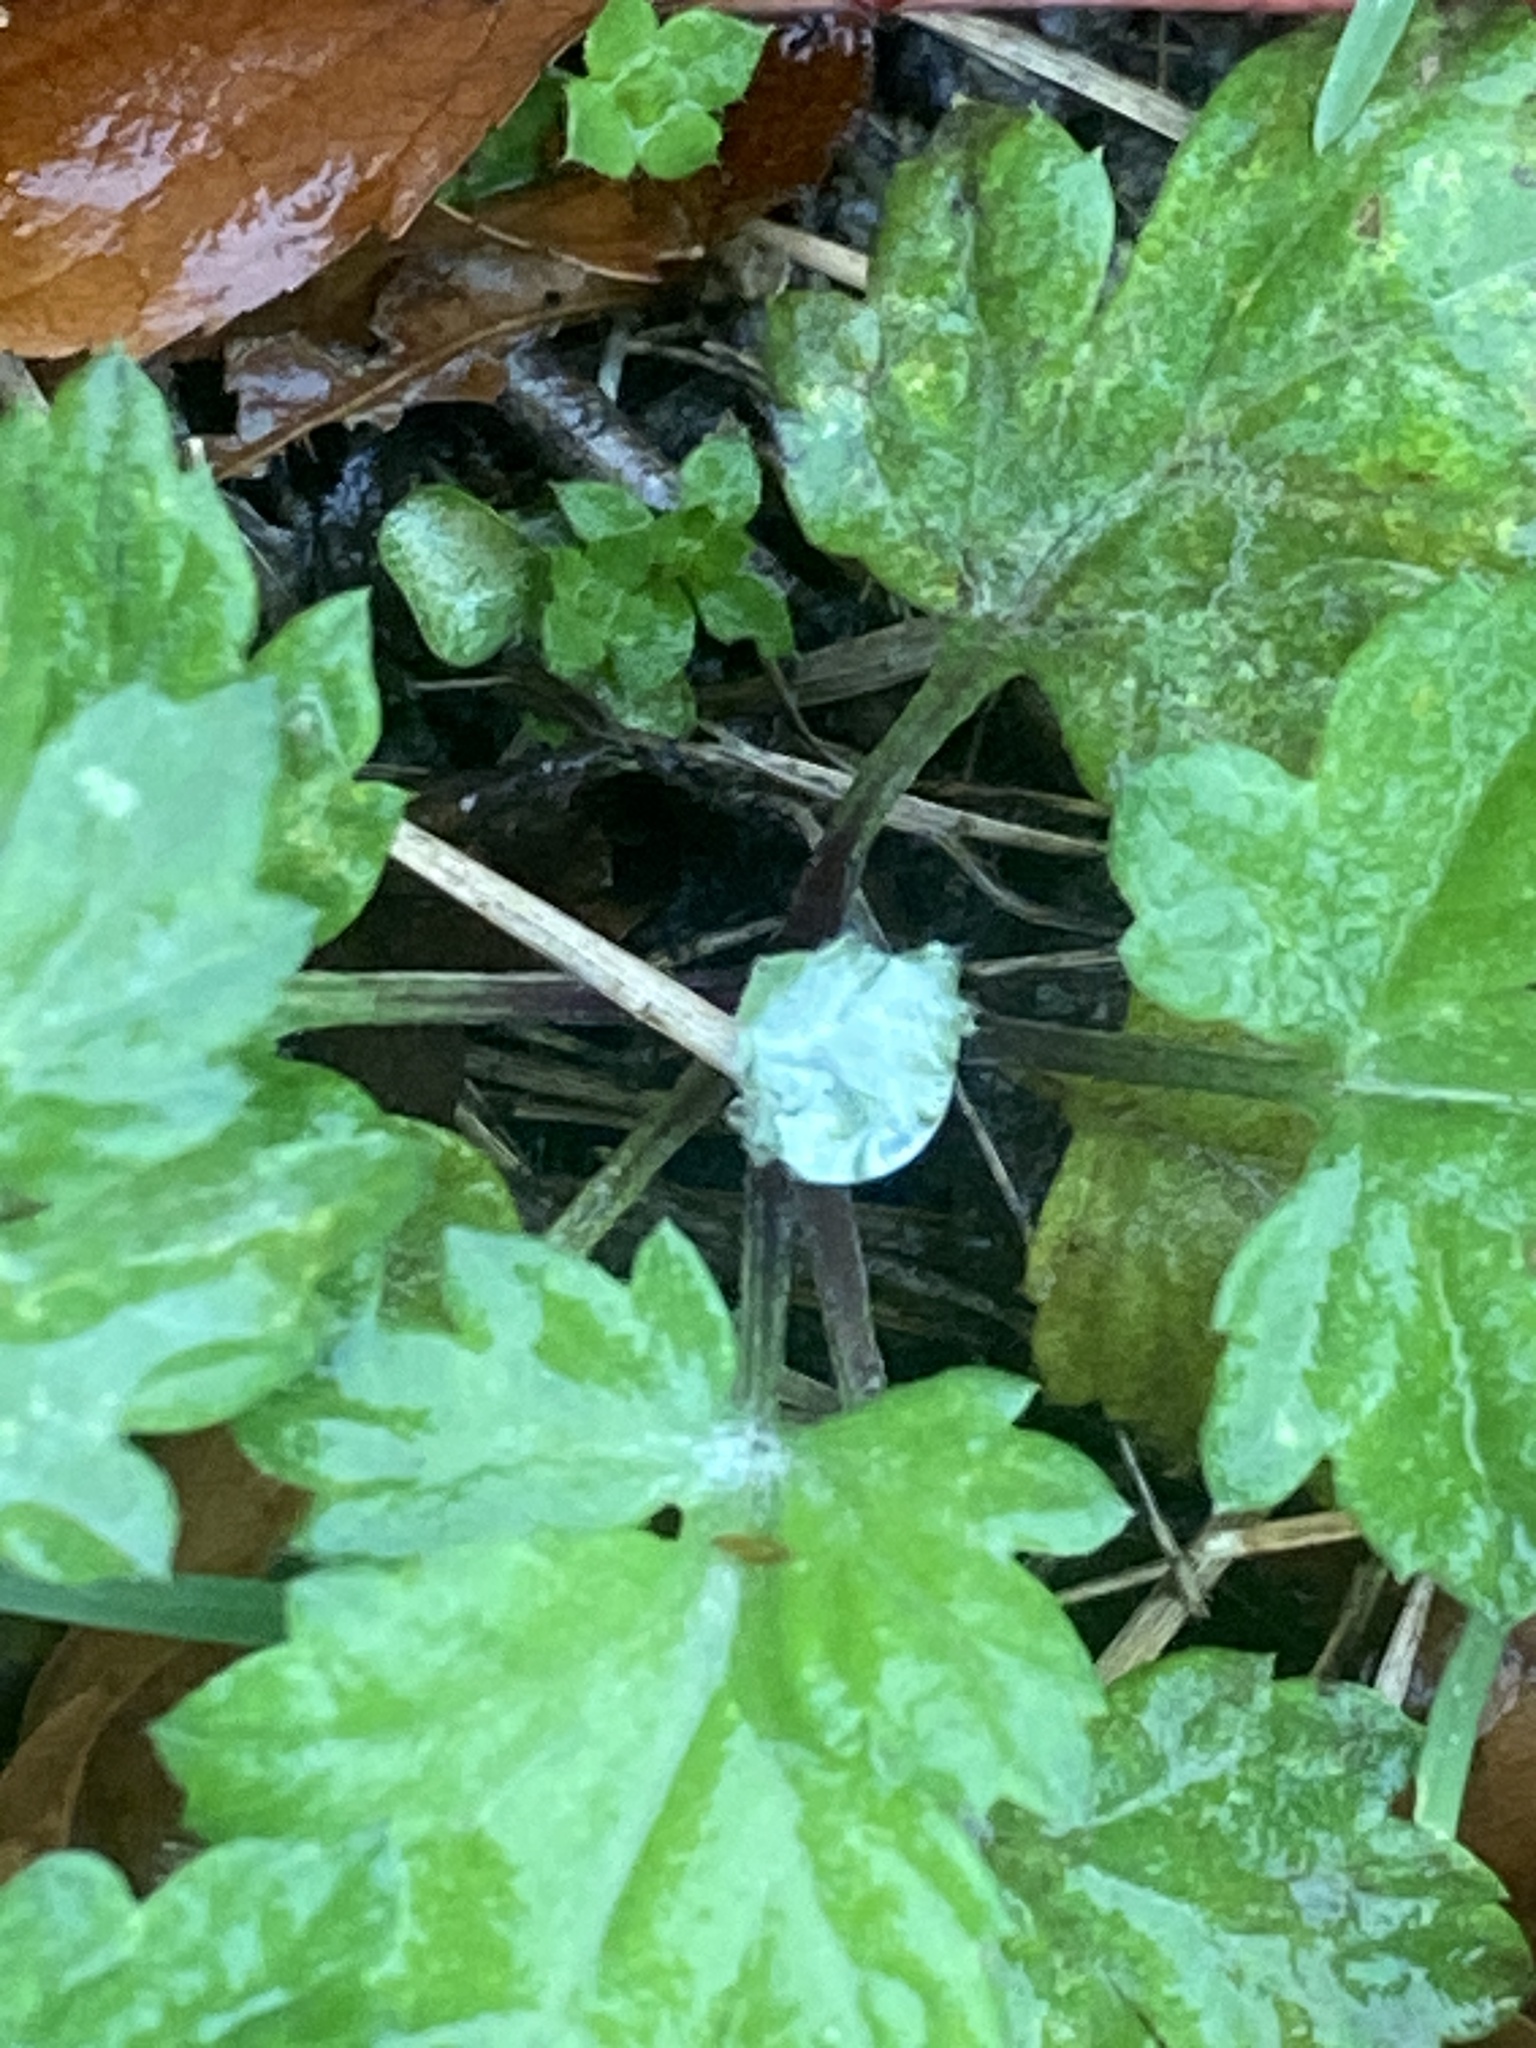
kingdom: Plantae
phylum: Tracheophyta
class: Magnoliopsida
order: Asterales
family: Asteraceae
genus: Artemisia
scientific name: Artemisia vulgaris
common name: Mugwort
